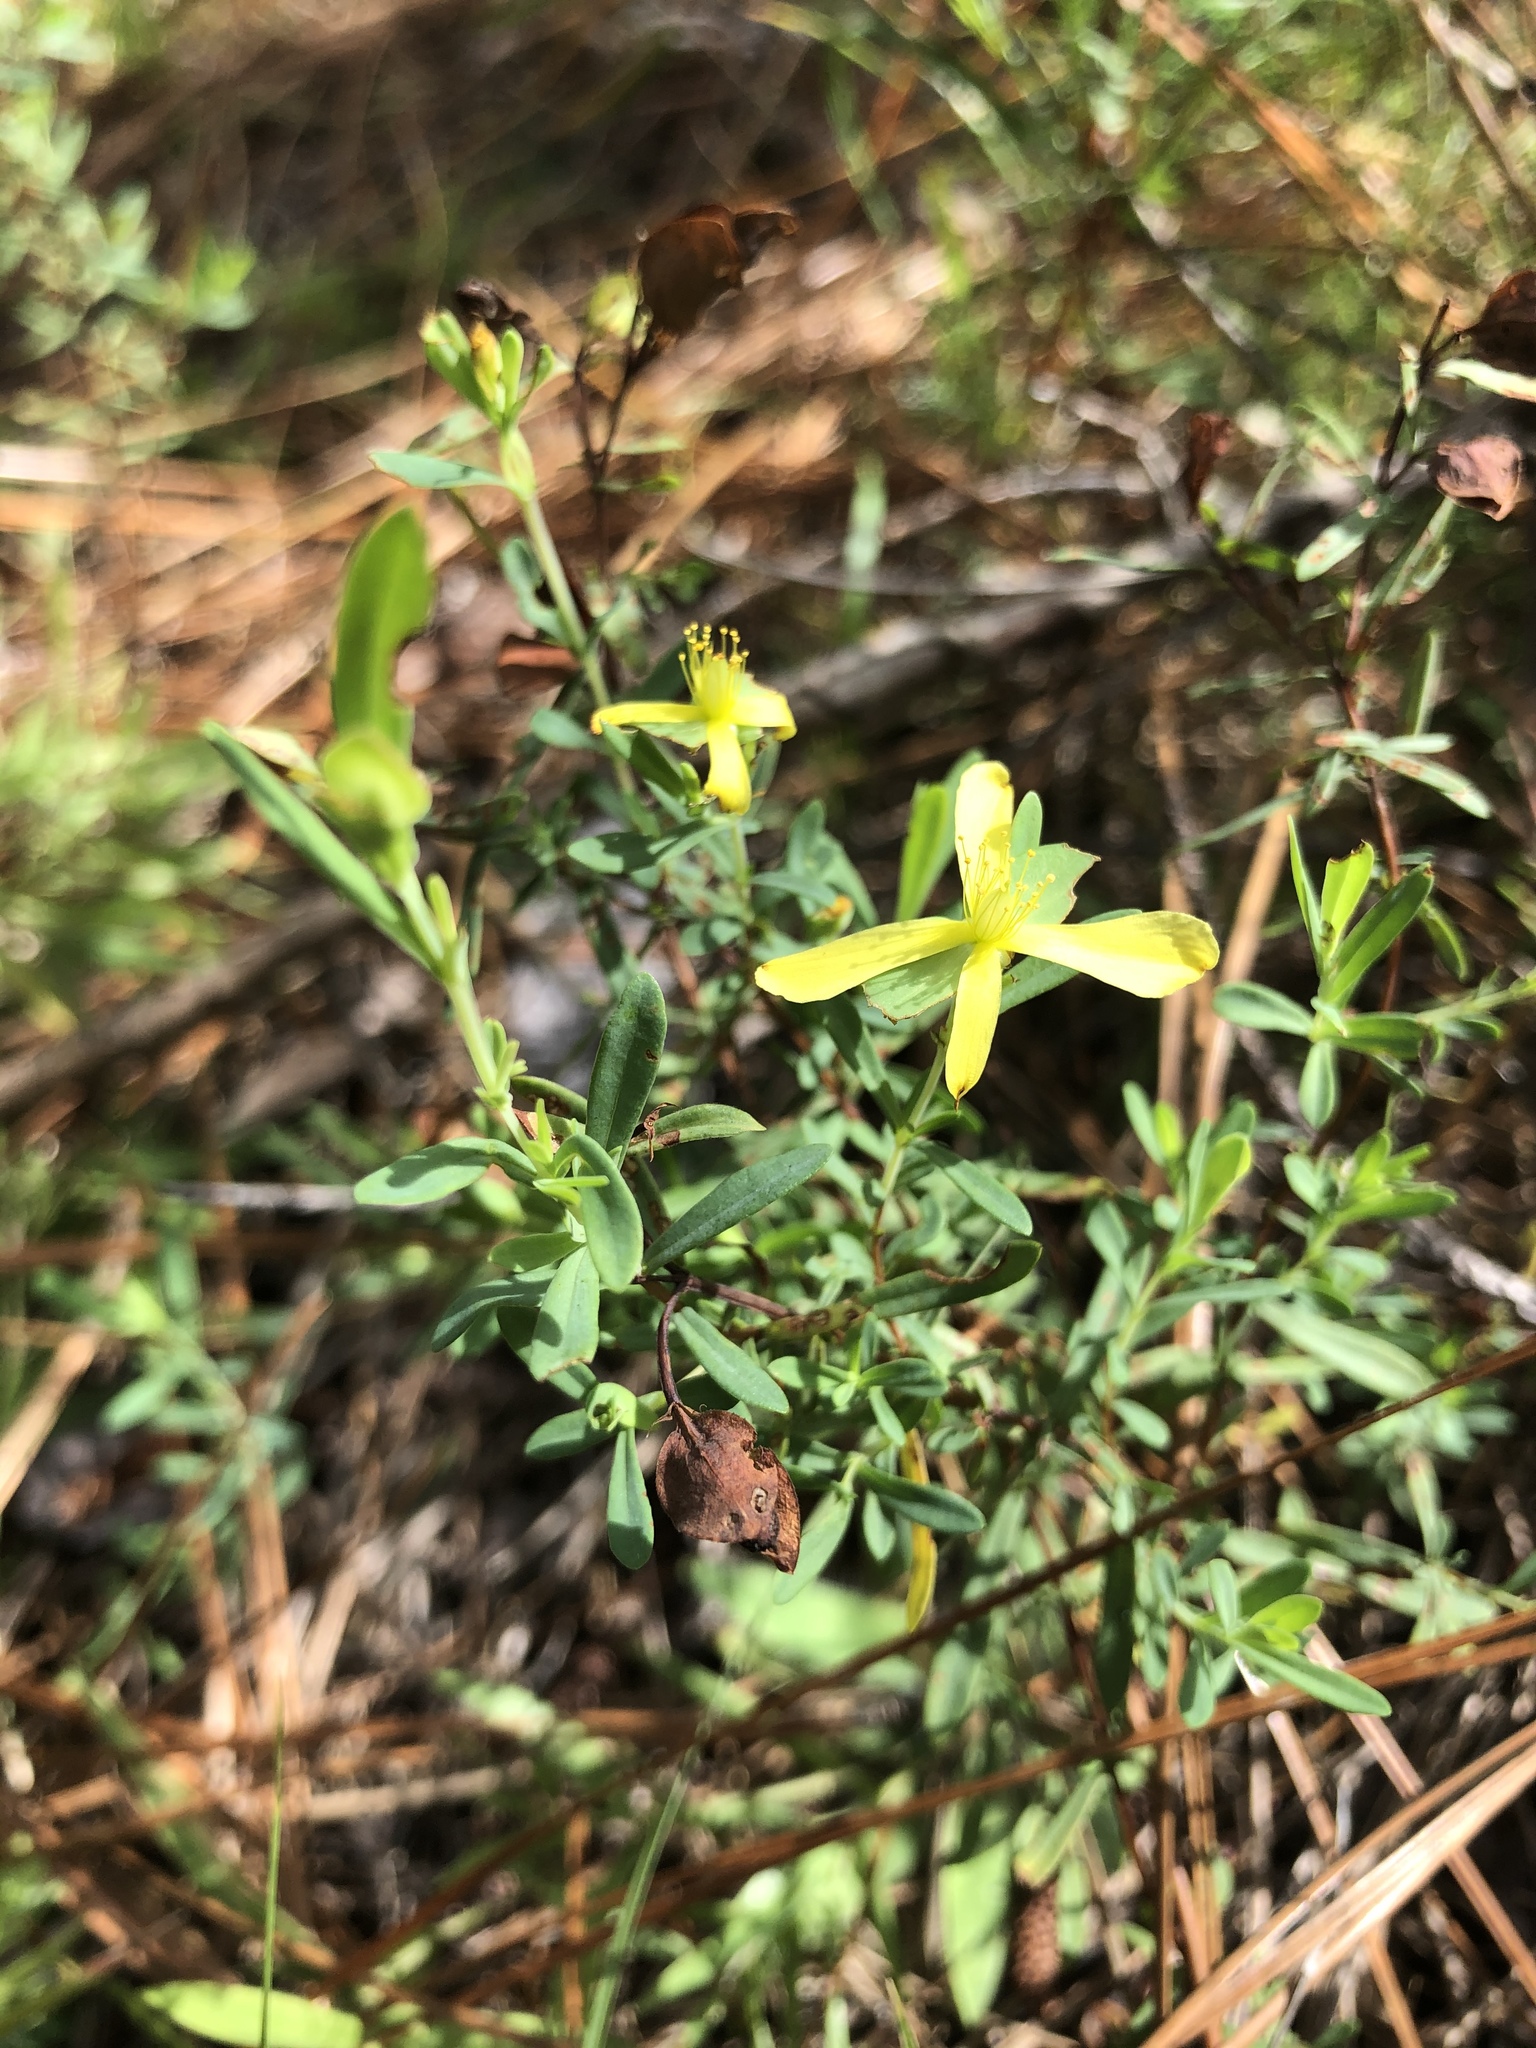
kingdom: Plantae
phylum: Tracheophyta
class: Magnoliopsida
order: Malpighiales
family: Hypericaceae
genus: Hypericum
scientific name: Hypericum hypericoides
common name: St. andrew's cross
